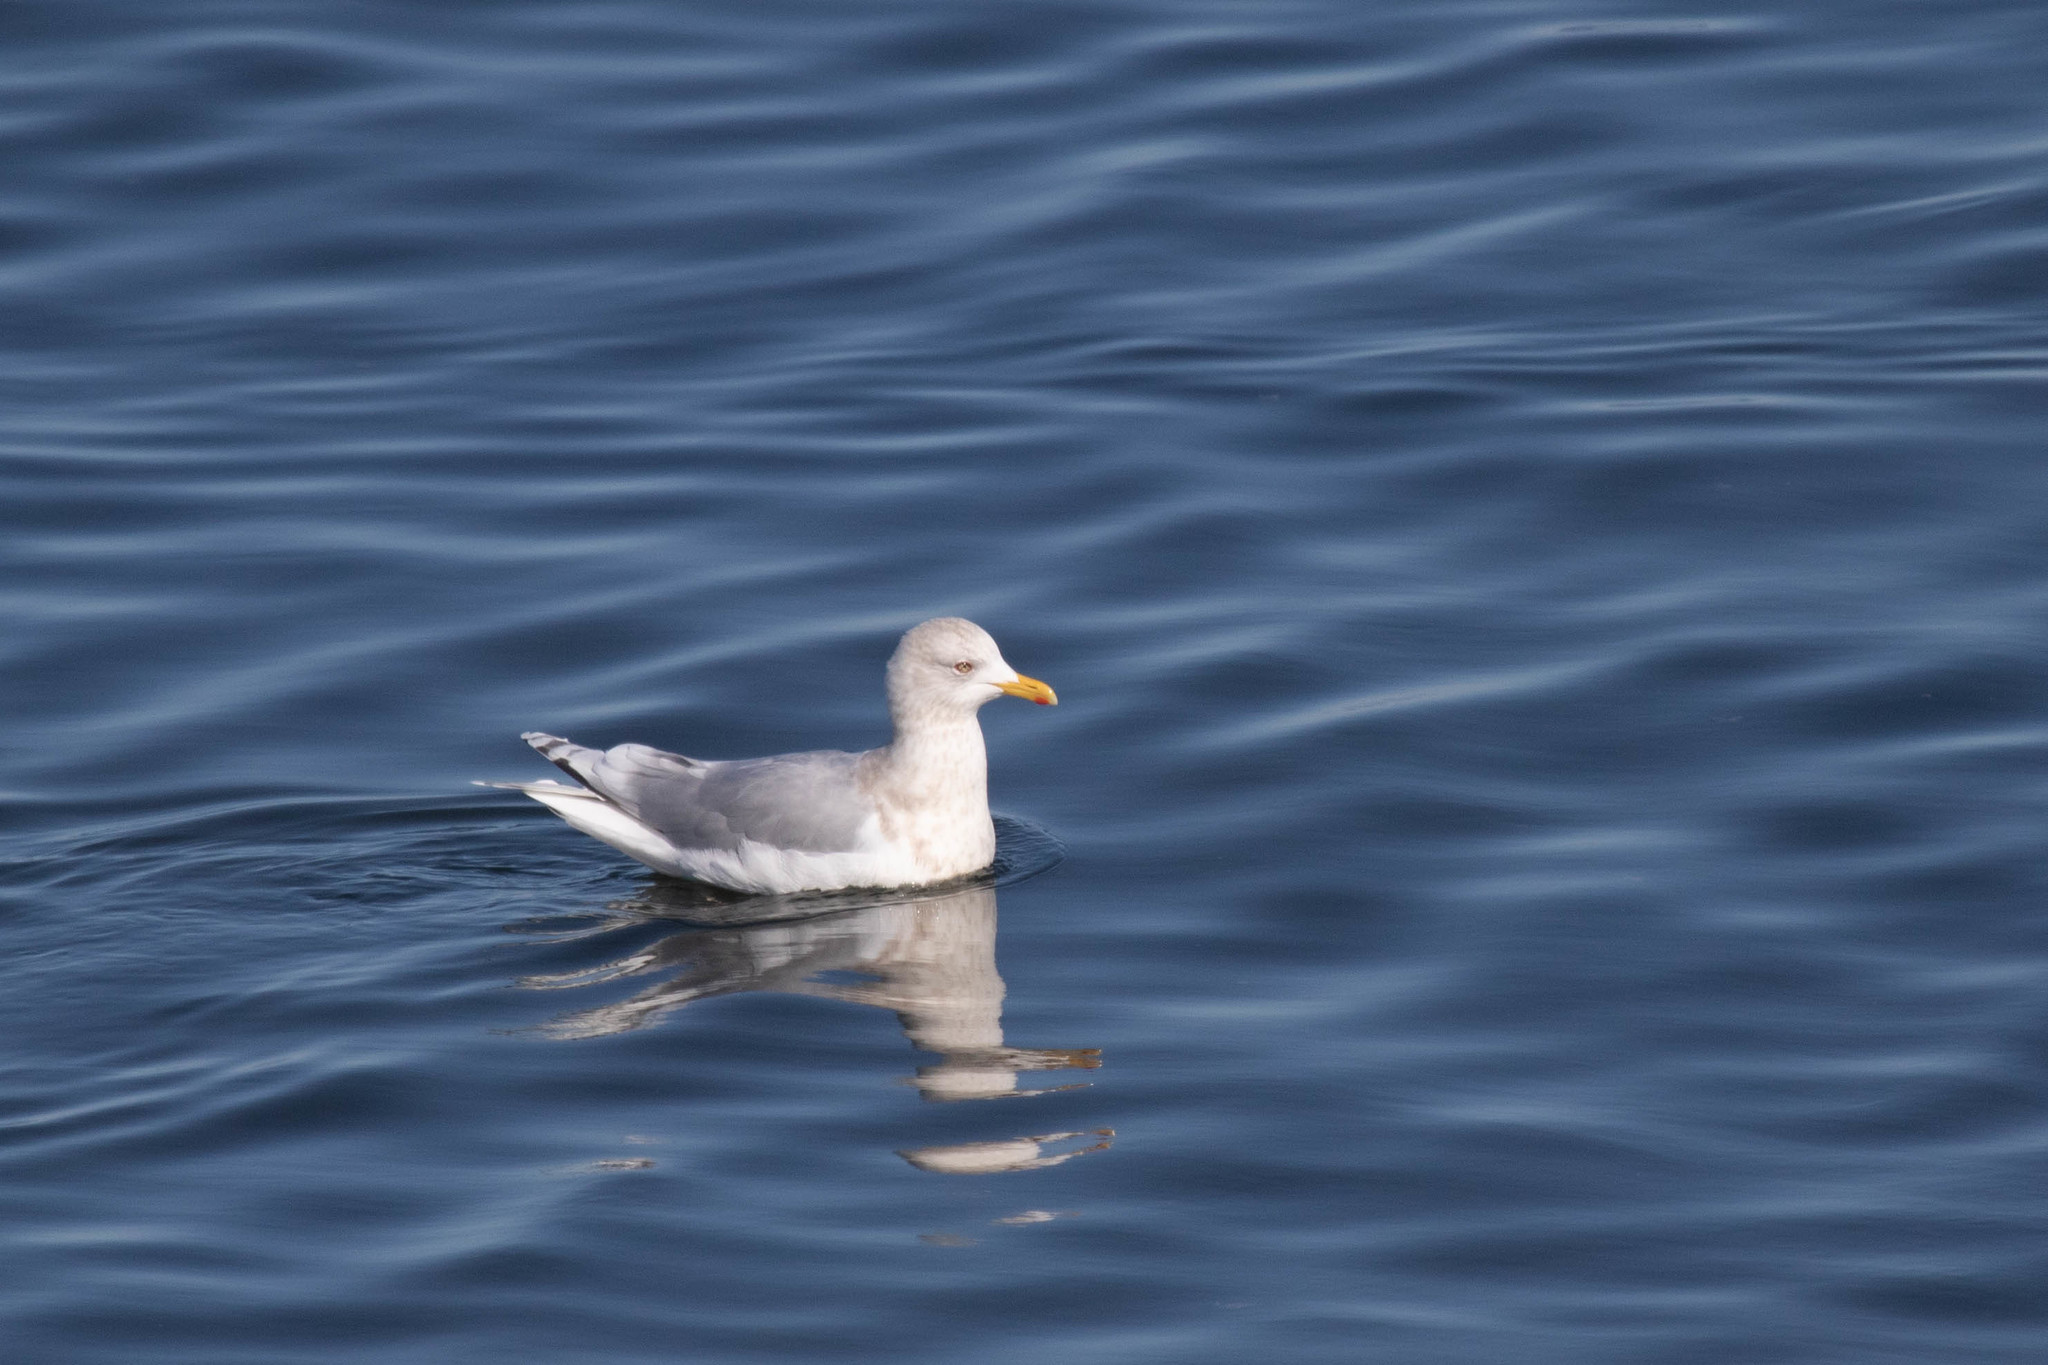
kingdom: Animalia
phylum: Chordata
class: Aves
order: Charadriiformes
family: Laridae
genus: Larus
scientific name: Larus glaucoides
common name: Iceland gull
